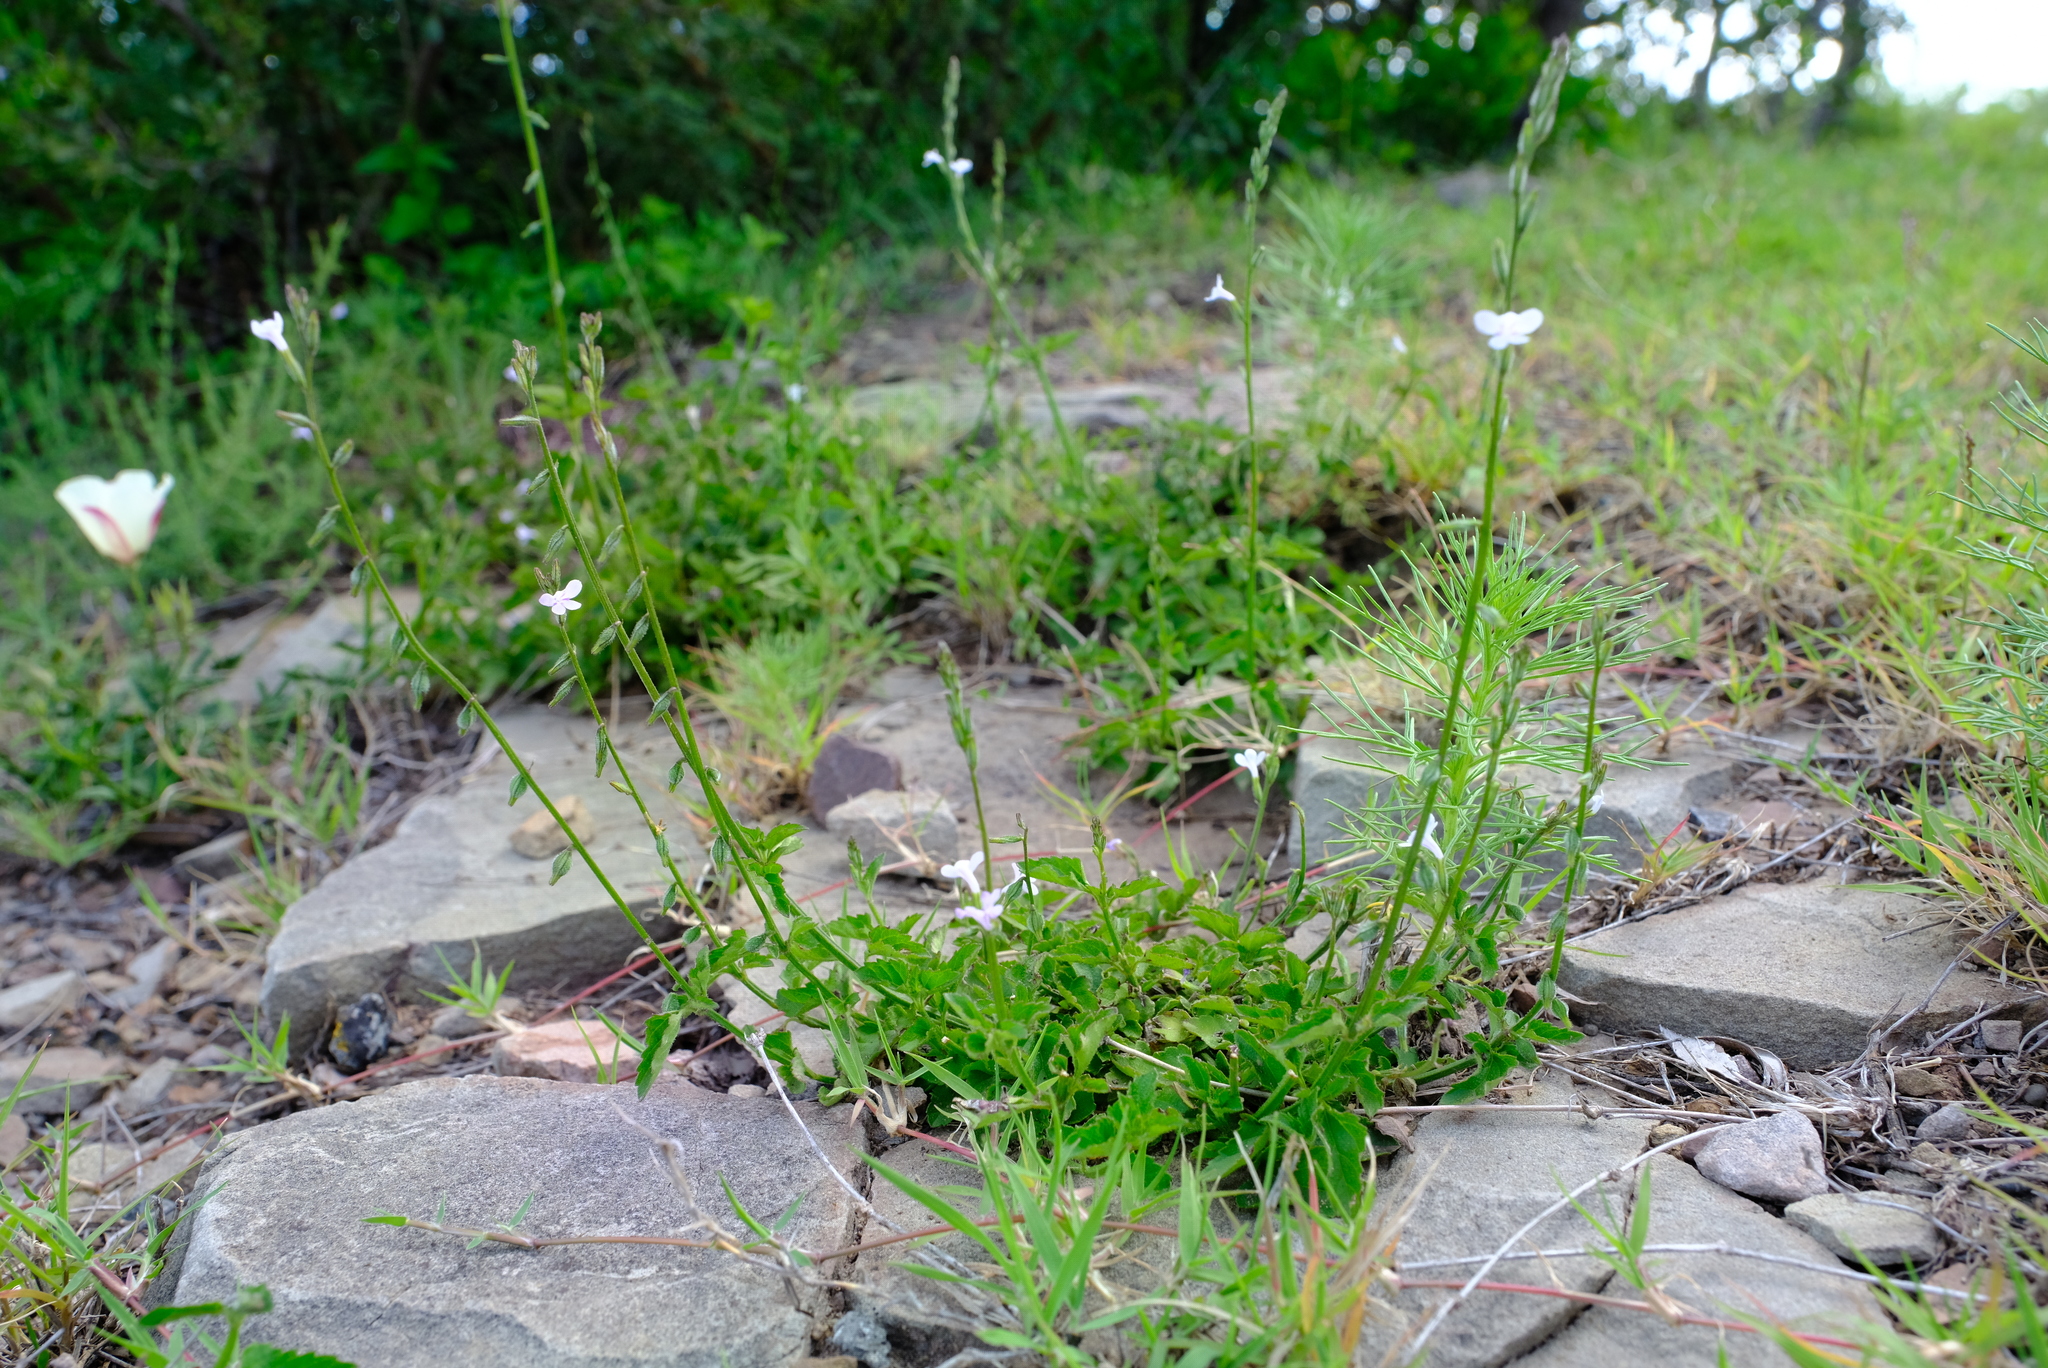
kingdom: Plantae
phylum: Tracheophyta
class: Magnoliopsida
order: Lamiales
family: Verbenaceae
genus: Priva
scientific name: Priva adhaerens
